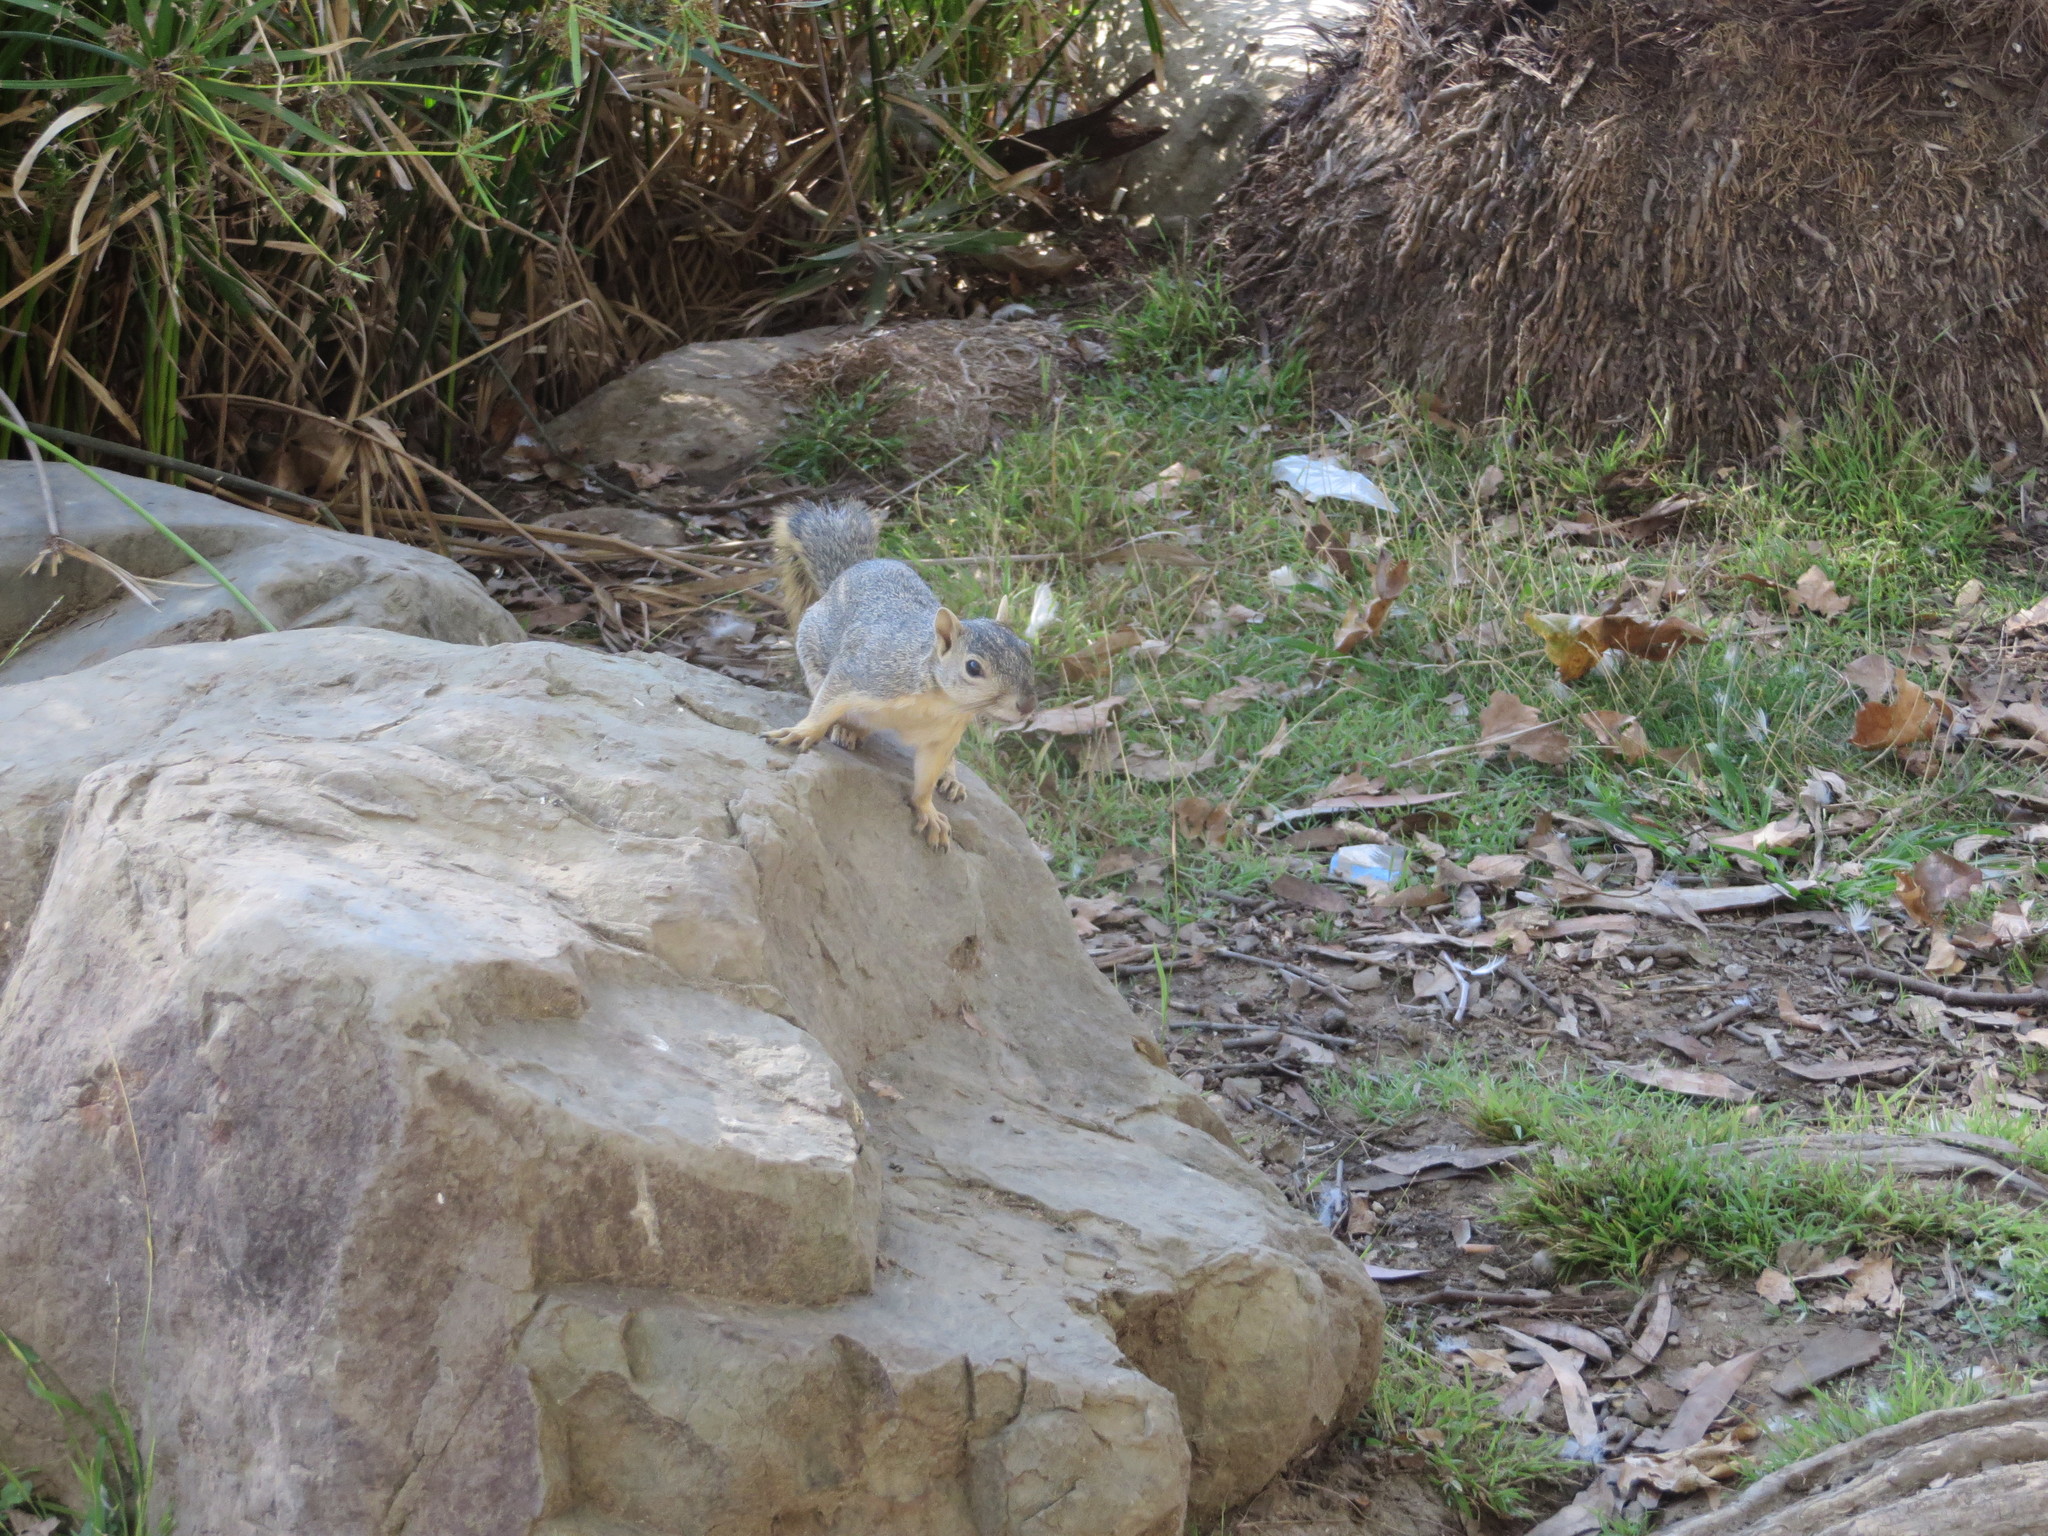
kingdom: Animalia
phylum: Chordata
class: Mammalia
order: Rodentia
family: Sciuridae
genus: Sciurus
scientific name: Sciurus niger
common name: Fox squirrel
